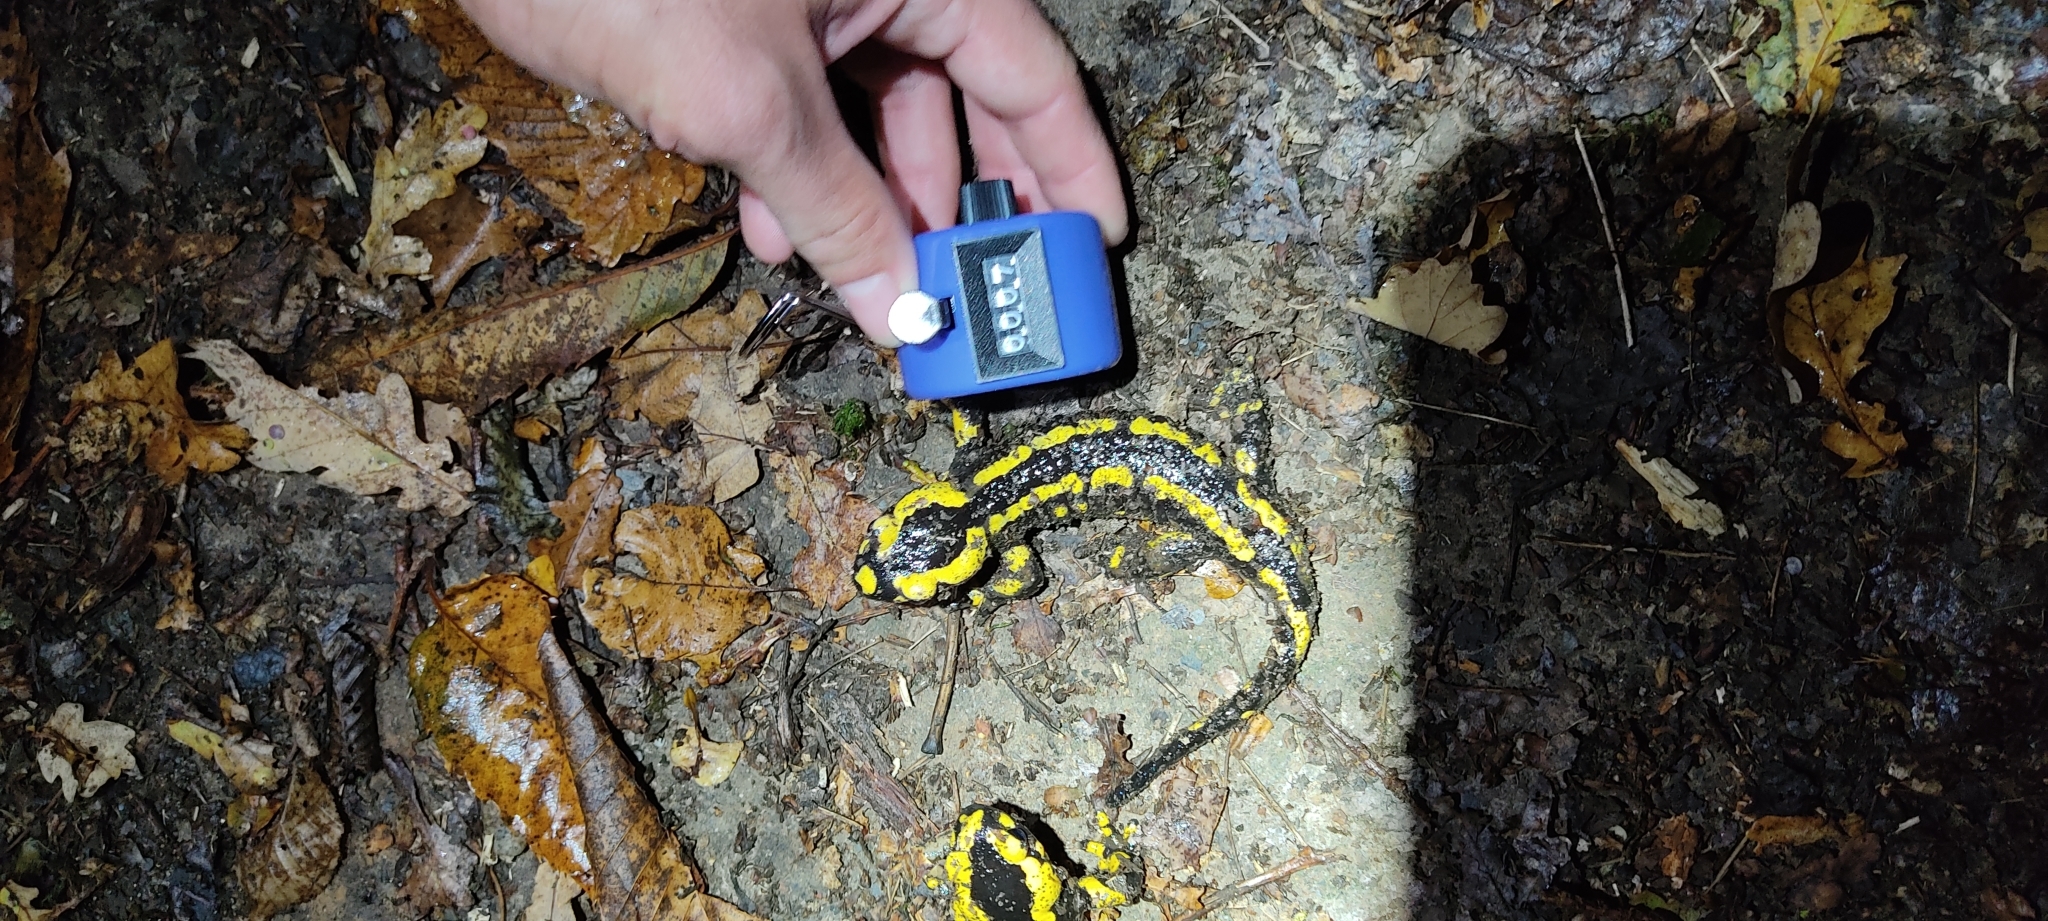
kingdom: Animalia
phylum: Chordata
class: Amphibia
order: Caudata
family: Salamandridae
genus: Salamandra
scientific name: Salamandra salamandra
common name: Fire salamander
